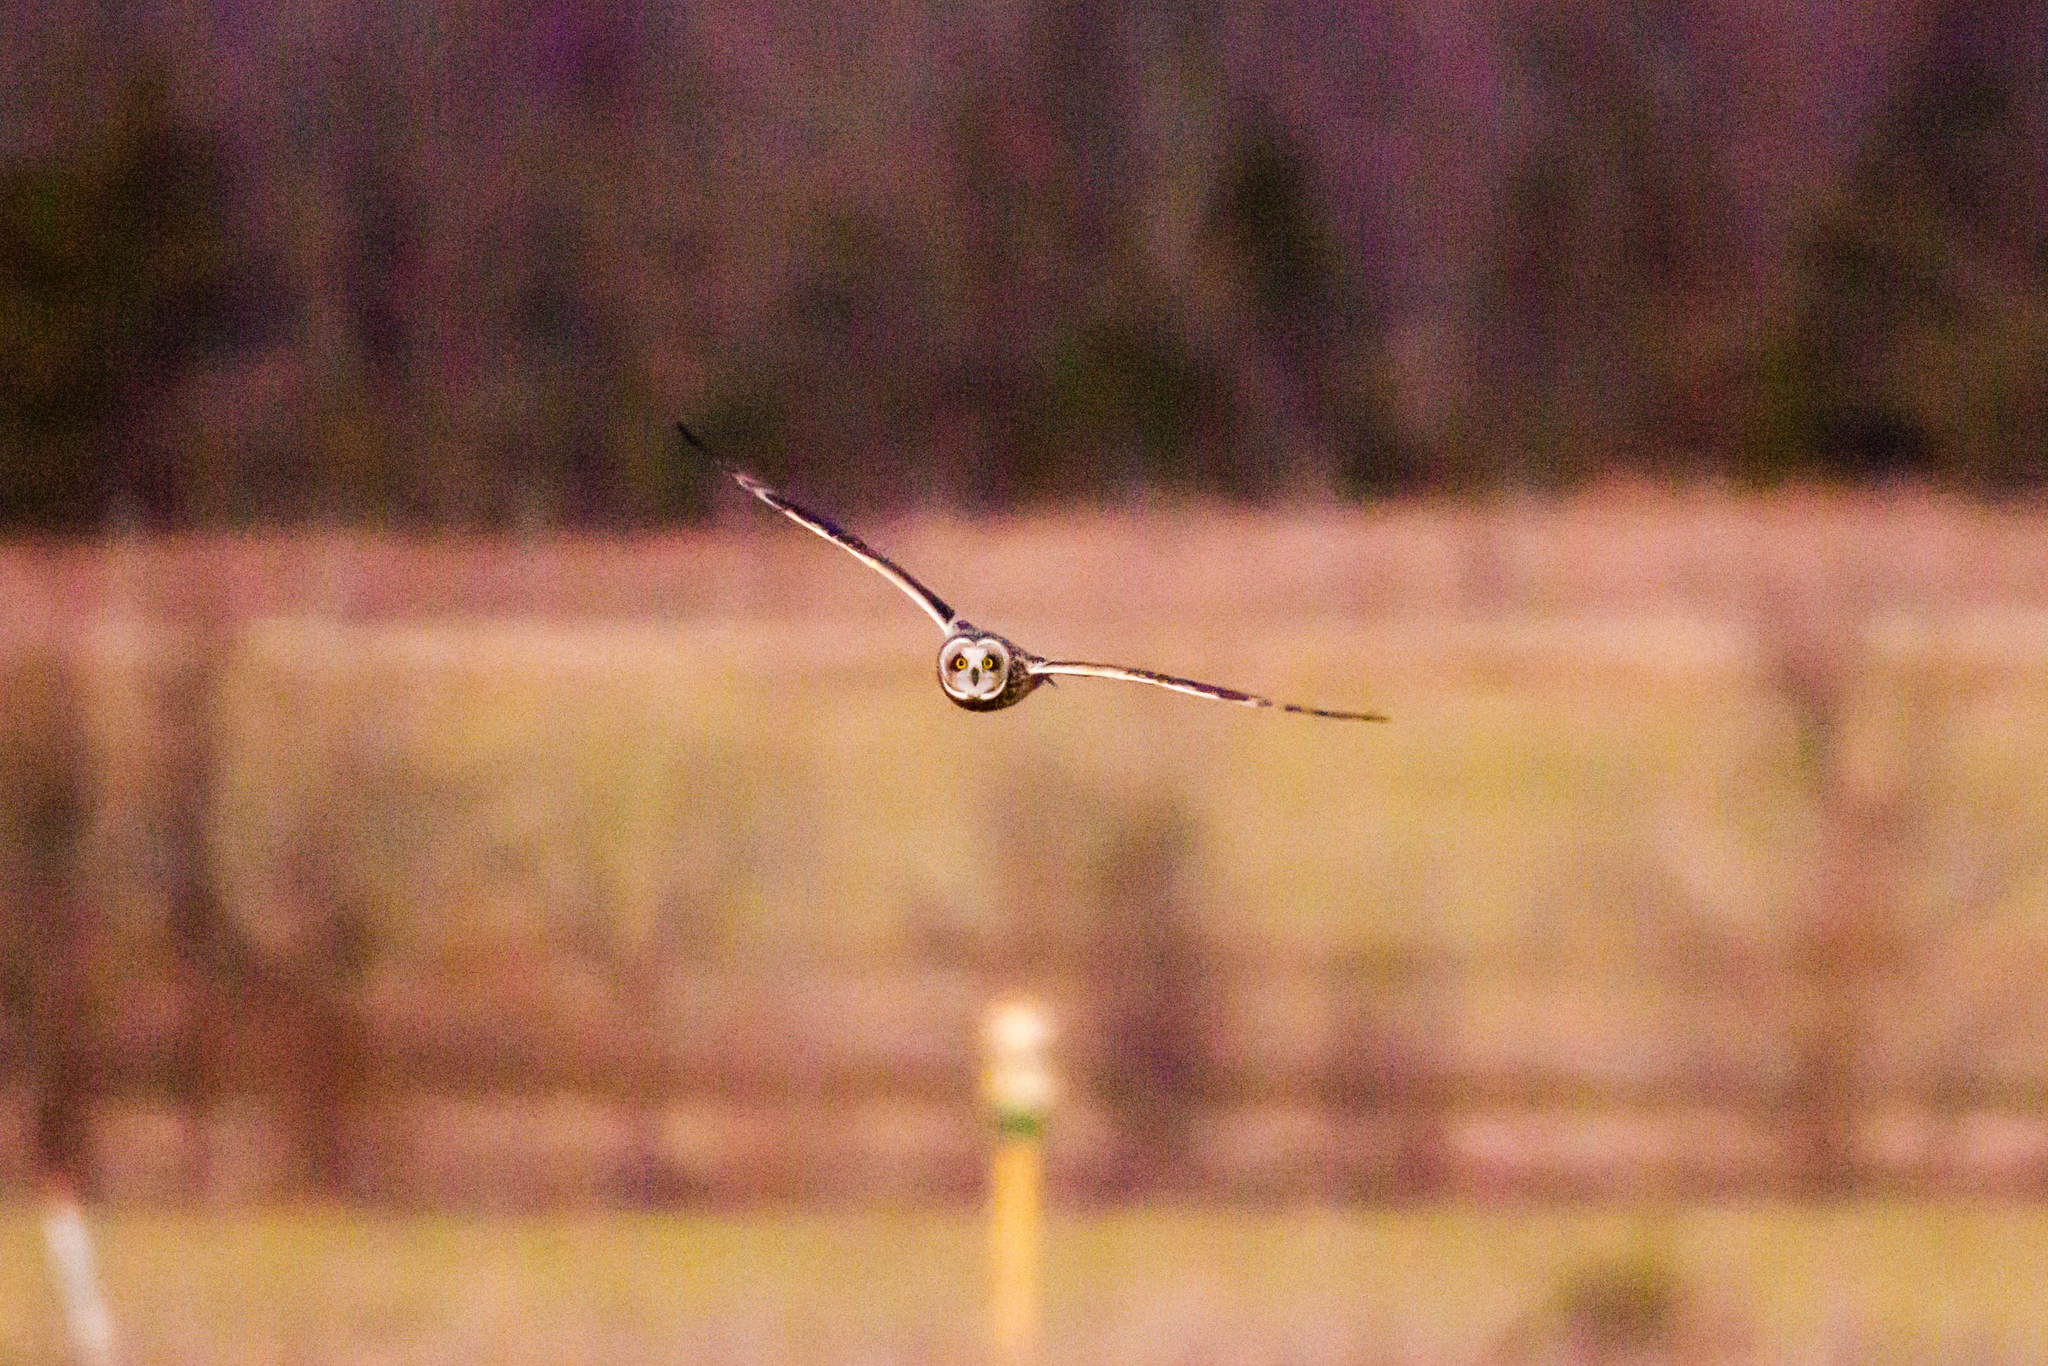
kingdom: Animalia
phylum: Chordata
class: Aves
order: Strigiformes
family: Strigidae
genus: Asio
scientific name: Asio flammeus
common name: Short-eared owl
